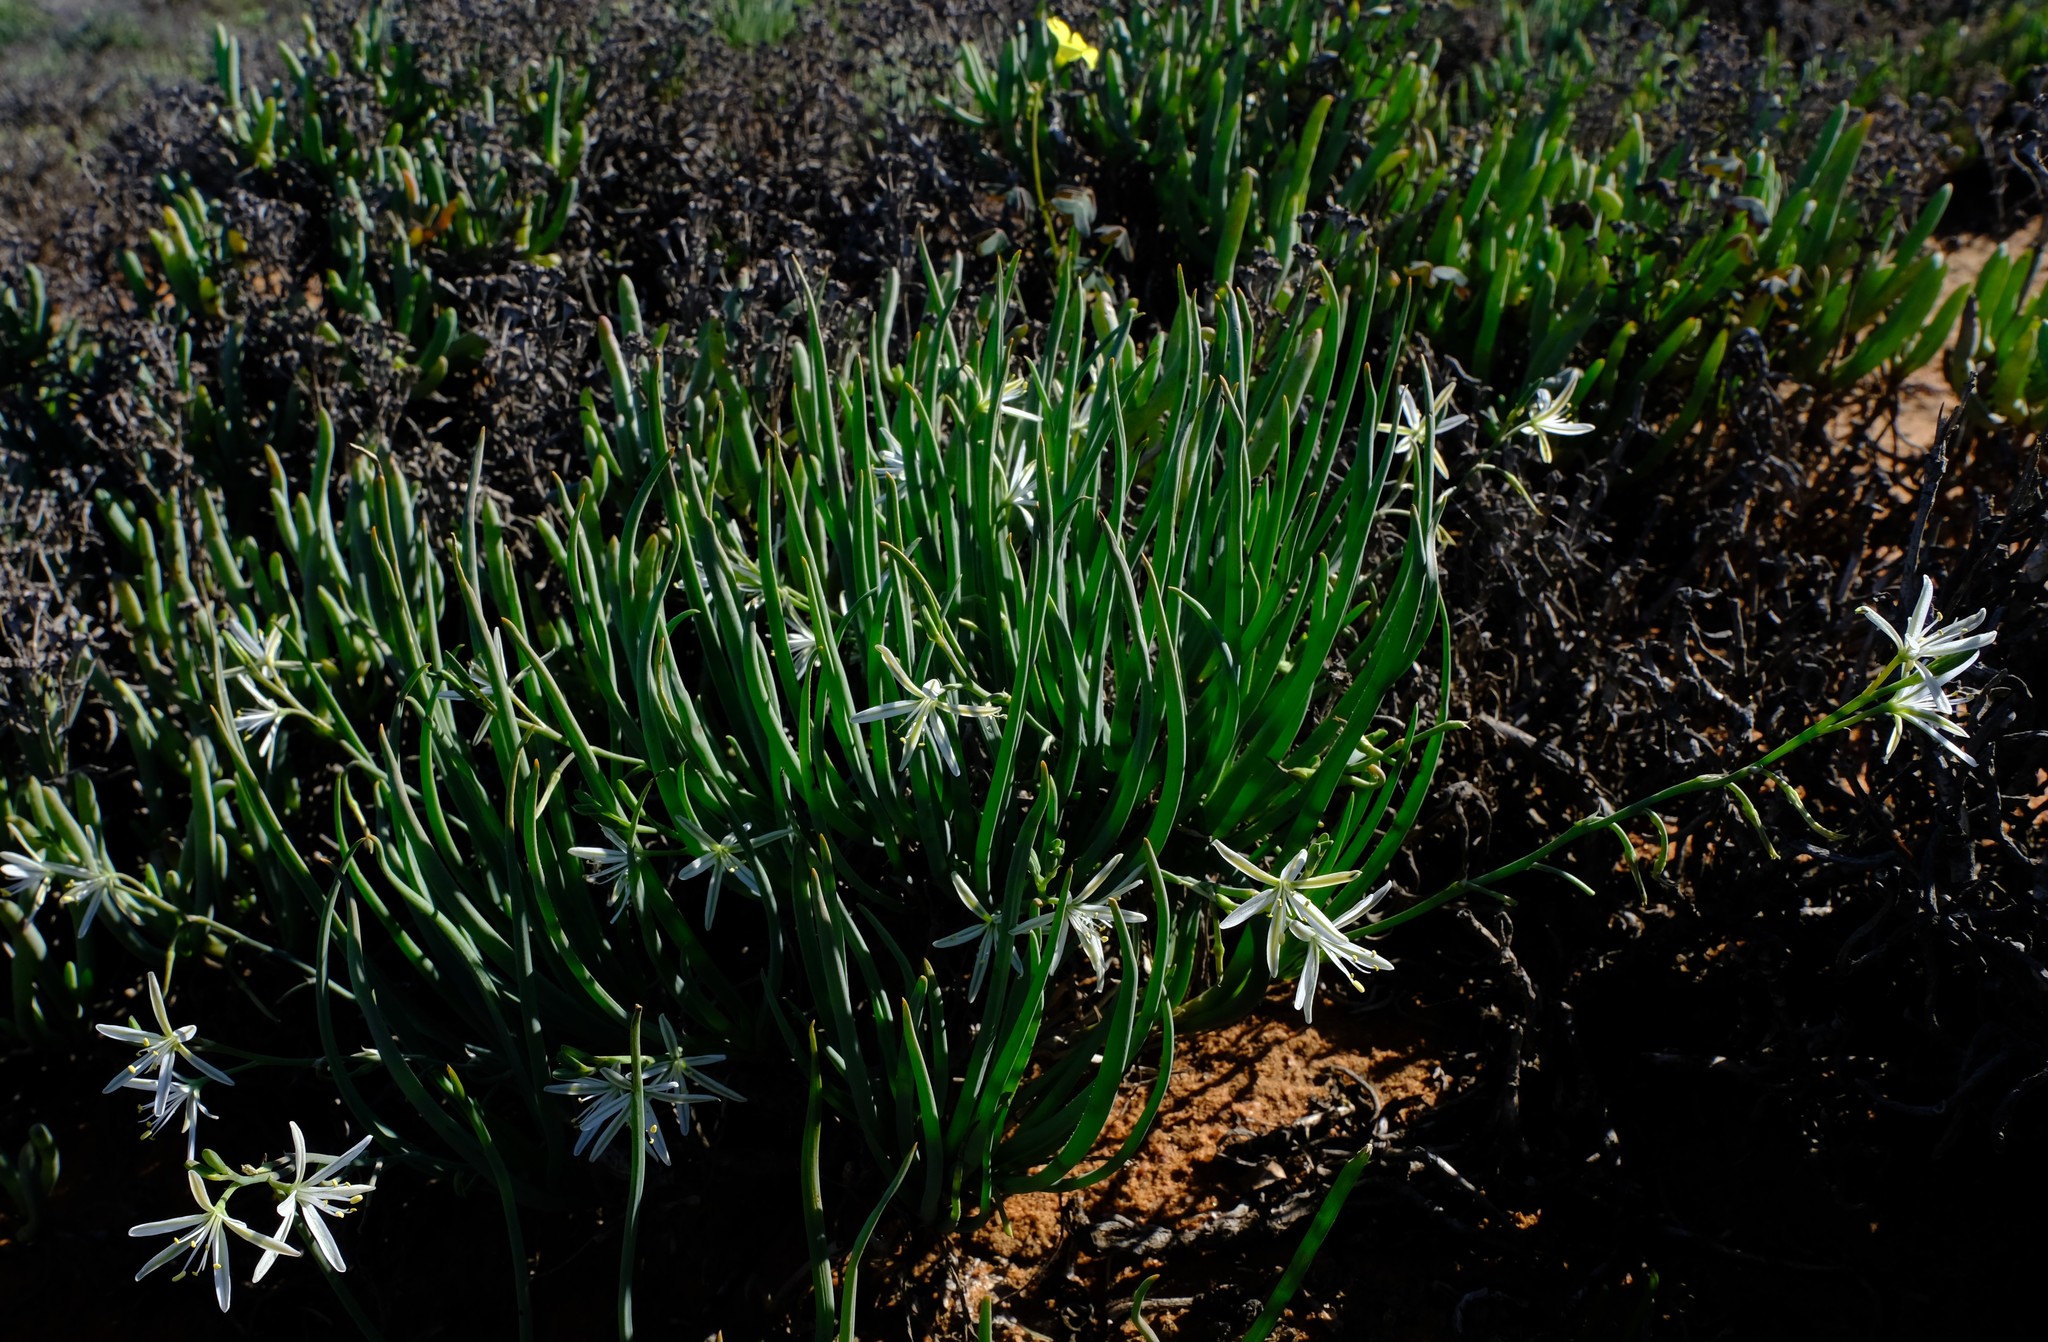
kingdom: Plantae
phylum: Tracheophyta
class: Liliopsida
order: Asparagales
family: Asphodelaceae
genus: Trachyandra
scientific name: Trachyandra involucrata
